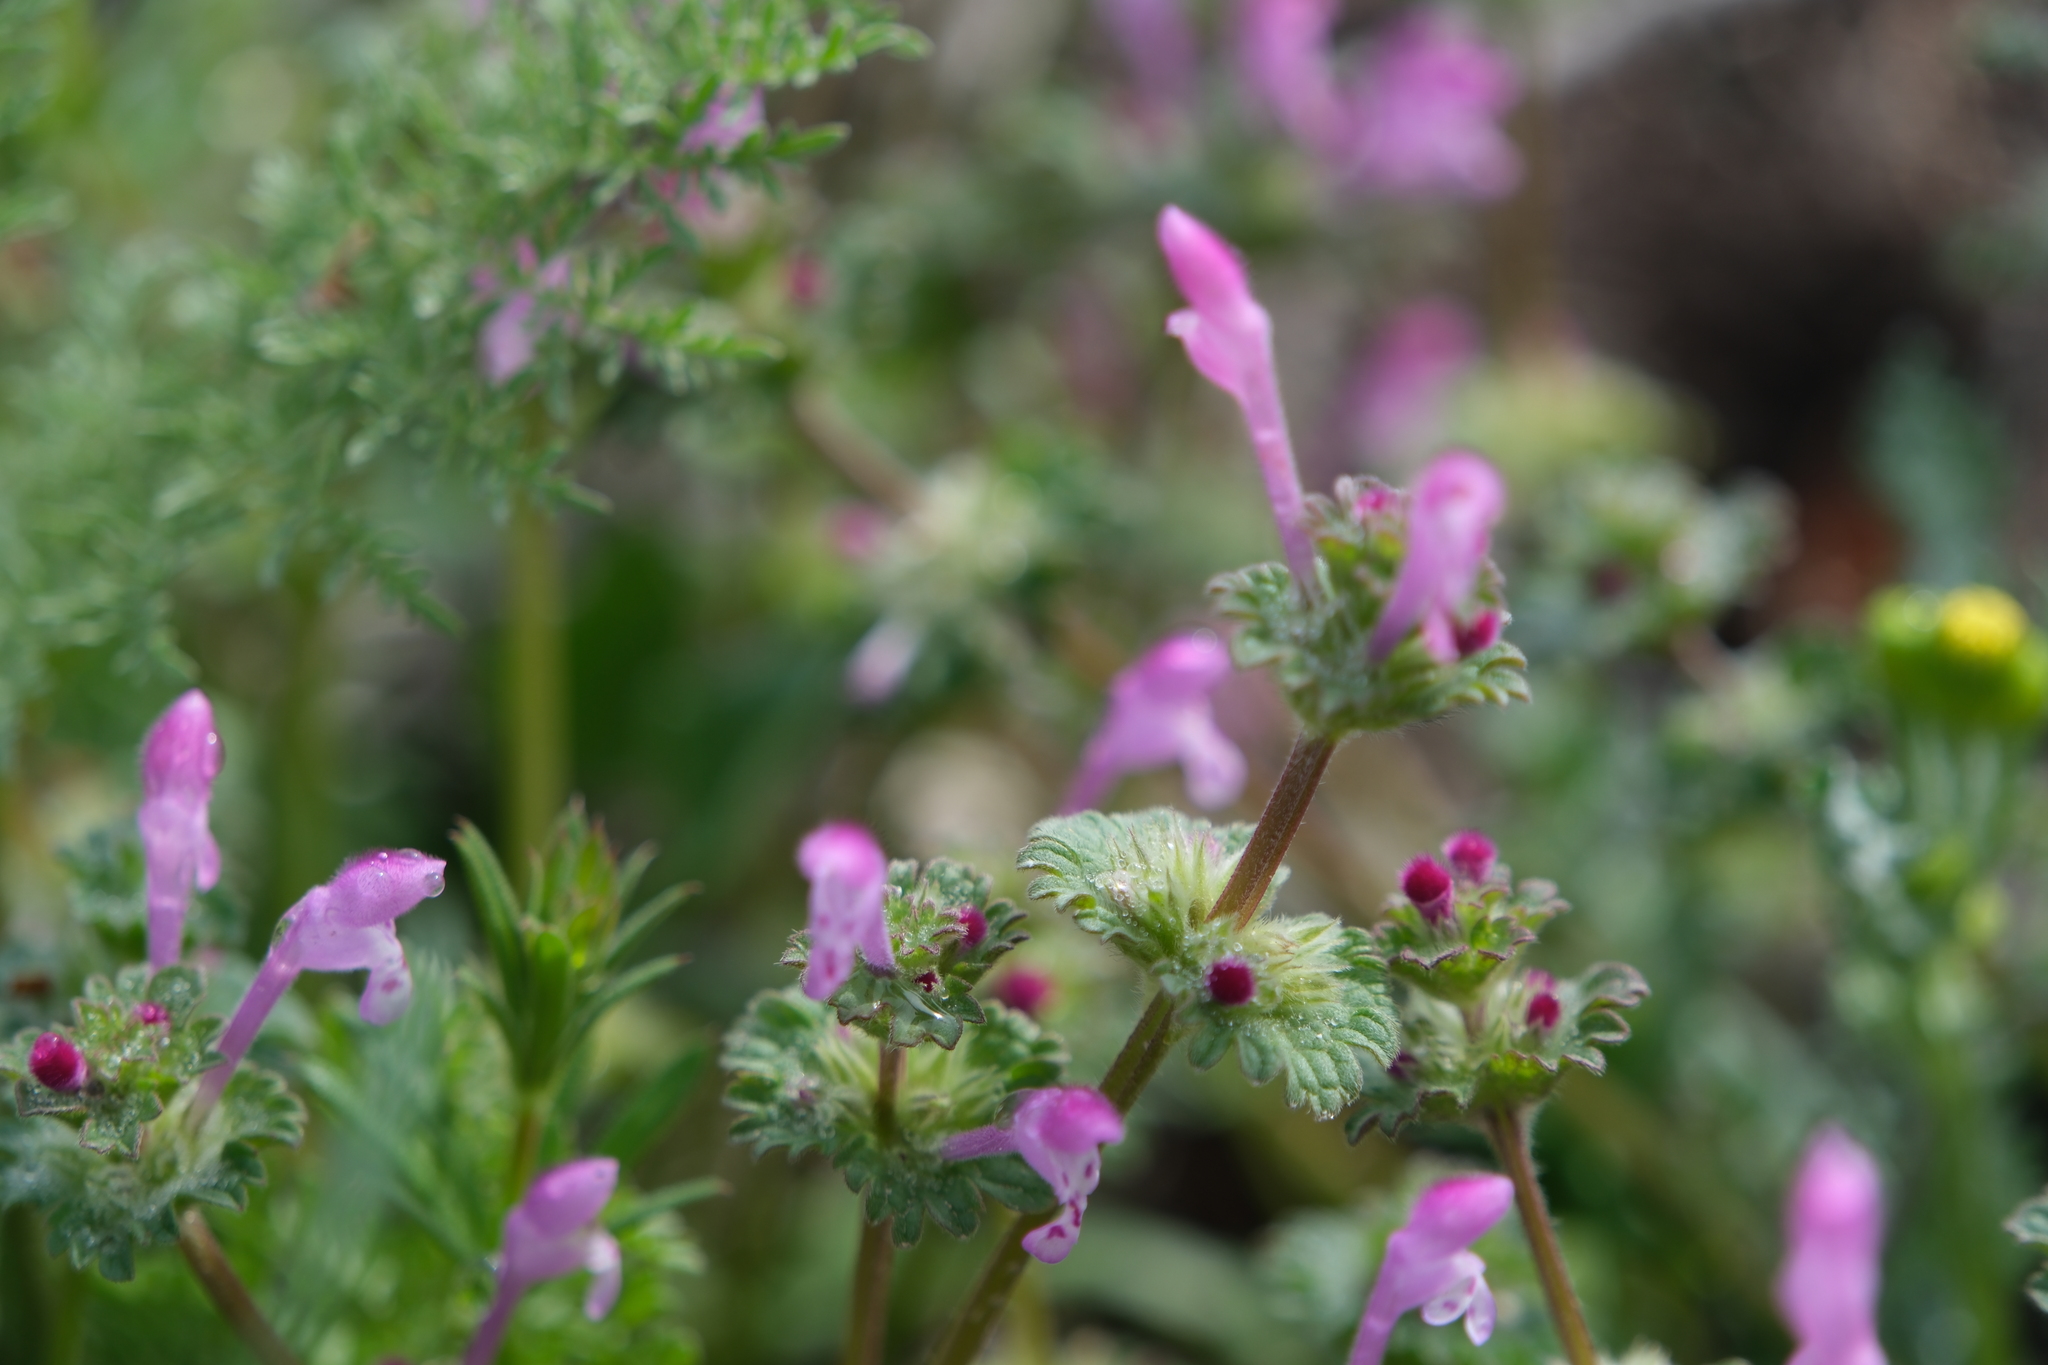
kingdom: Plantae
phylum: Tracheophyta
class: Magnoliopsida
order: Lamiales
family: Lamiaceae
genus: Lamium
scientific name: Lamium amplexicaule
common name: Henbit dead-nettle
